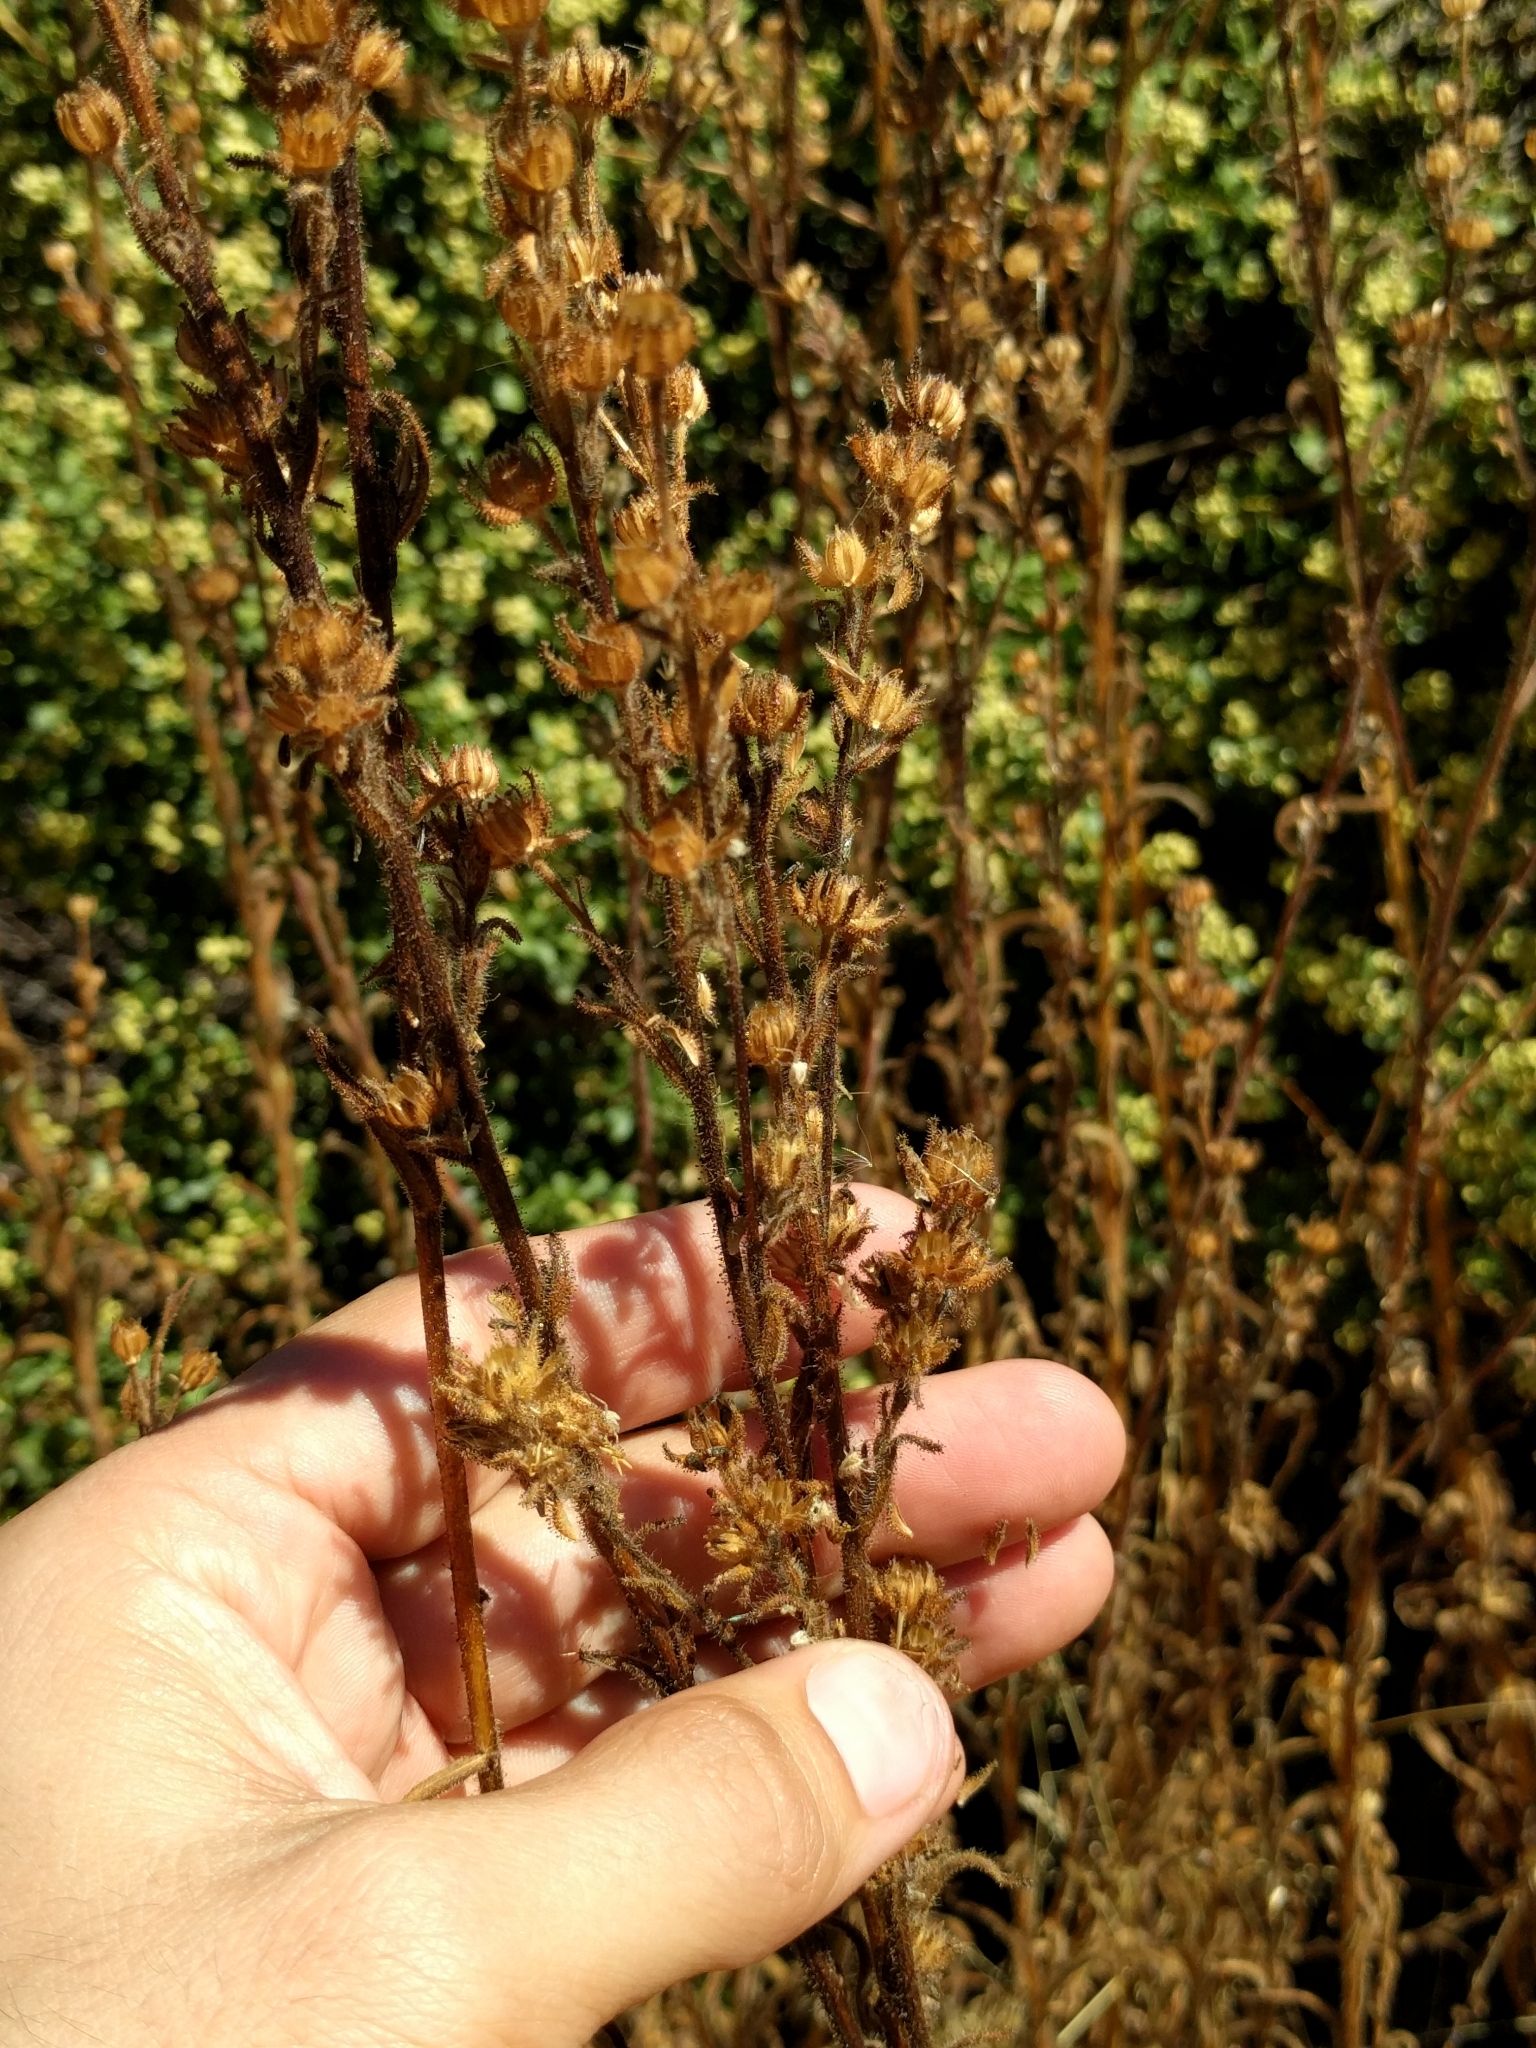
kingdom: Plantae
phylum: Tracheophyta
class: Magnoliopsida
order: Asterales
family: Asteraceae
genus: Madia
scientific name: Madia sativa
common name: Coast tarweed
